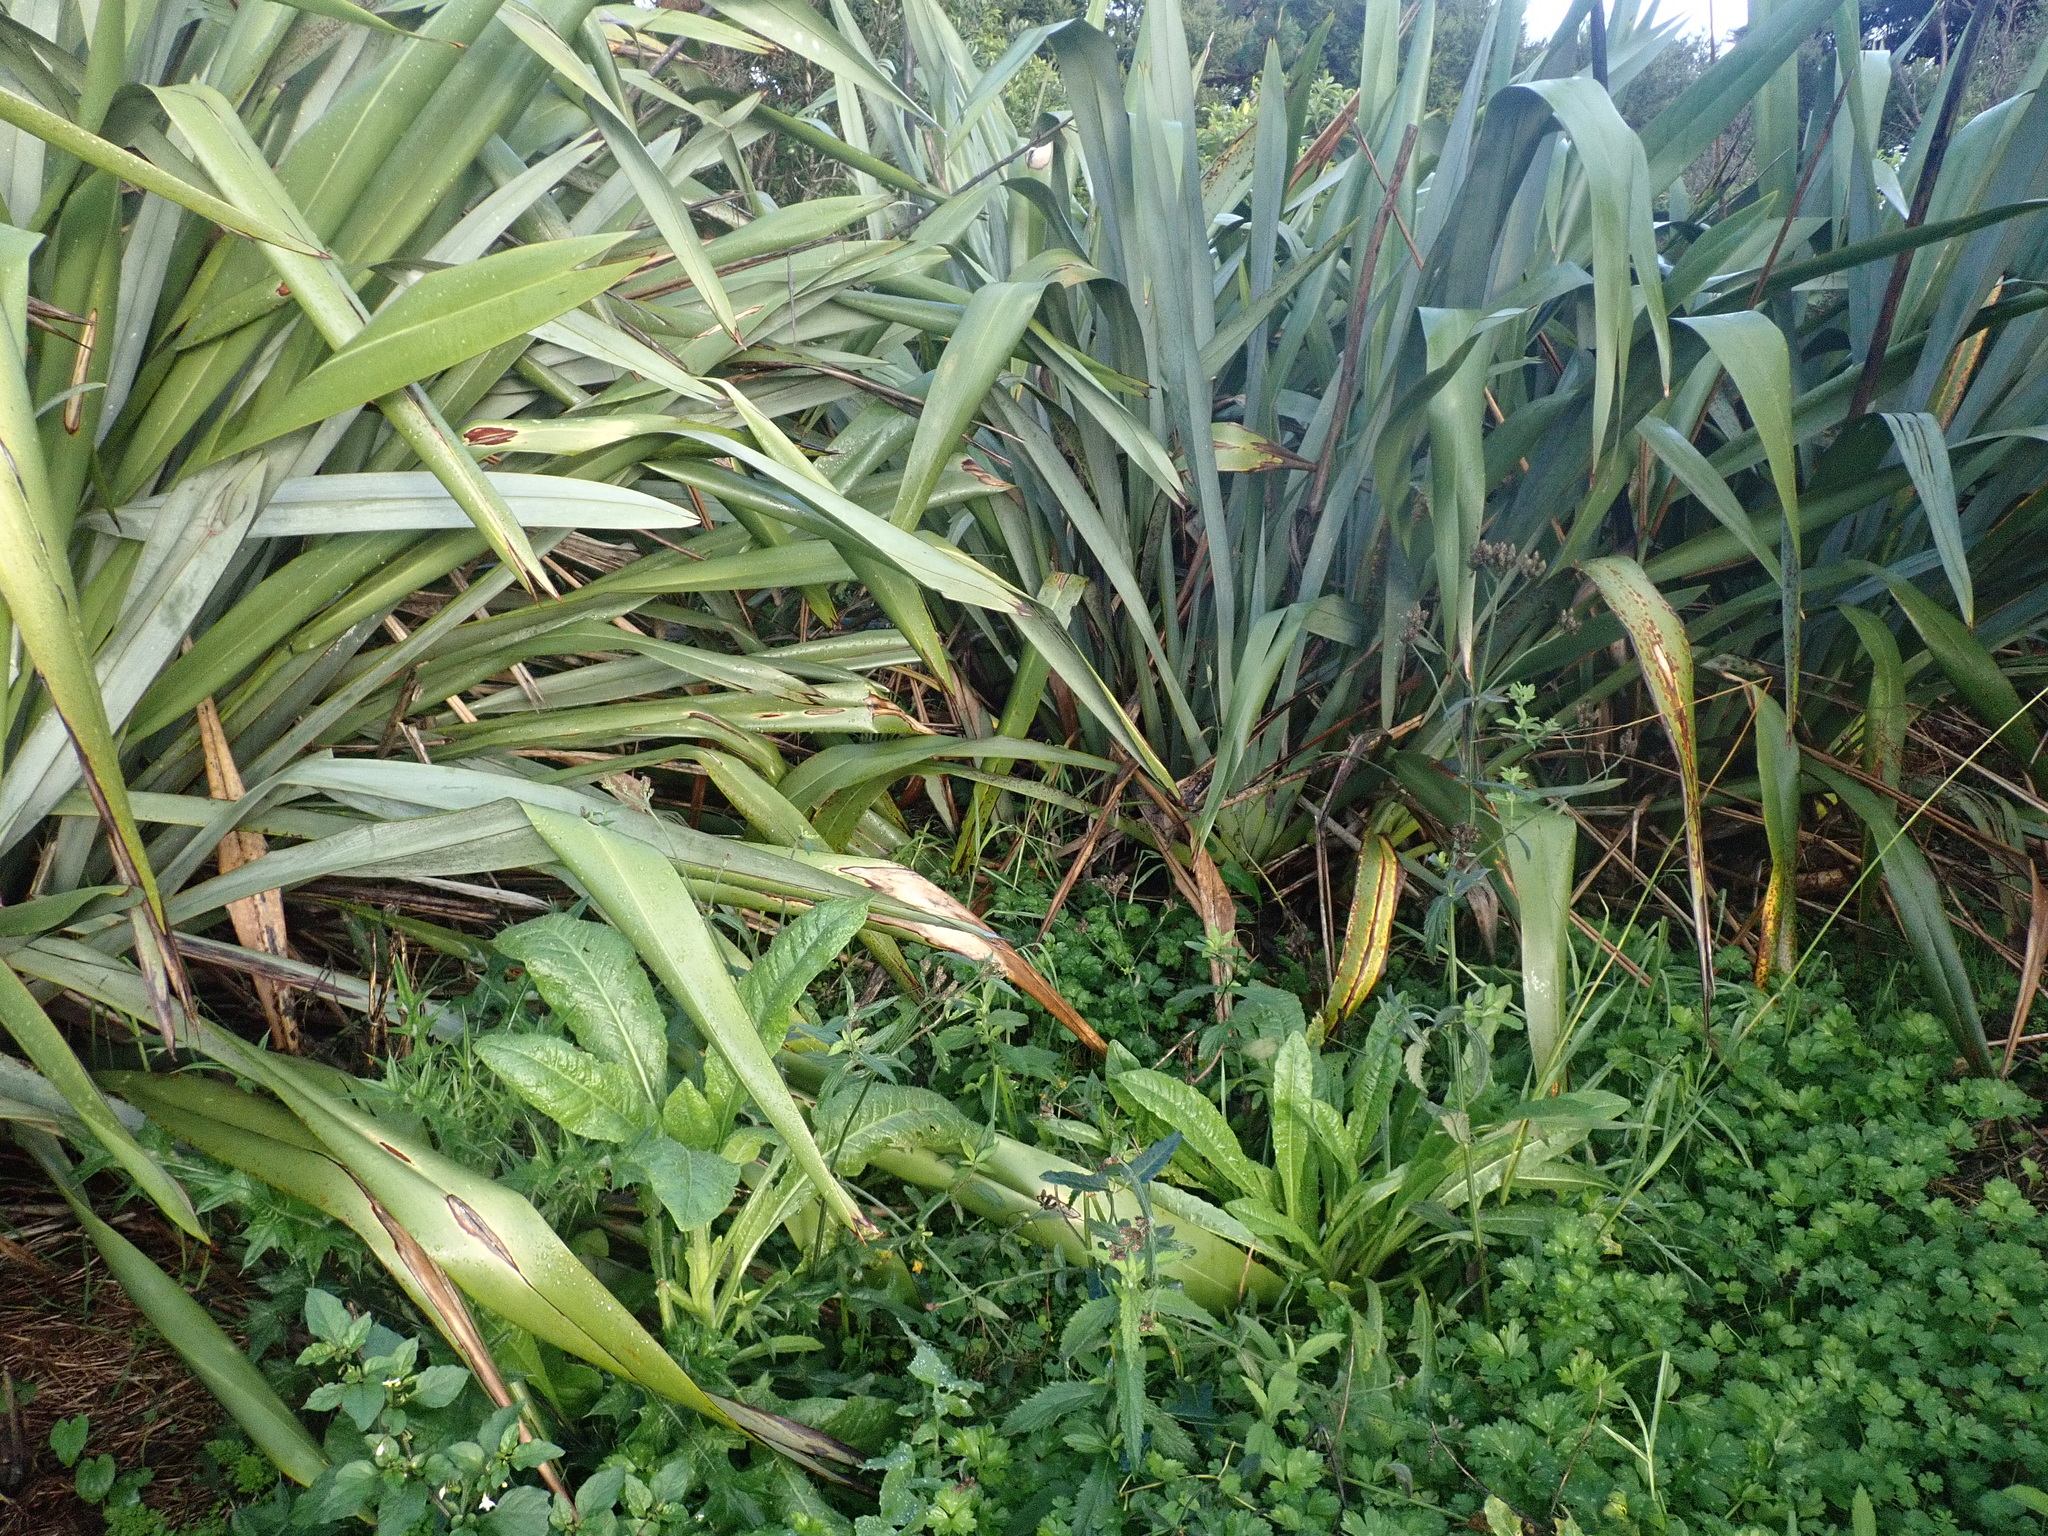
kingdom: Plantae
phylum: Tracheophyta
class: Magnoliopsida
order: Lamiales
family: Verbenaceae
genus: Verbena
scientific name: Verbena incompta
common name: Purpletop vervain
